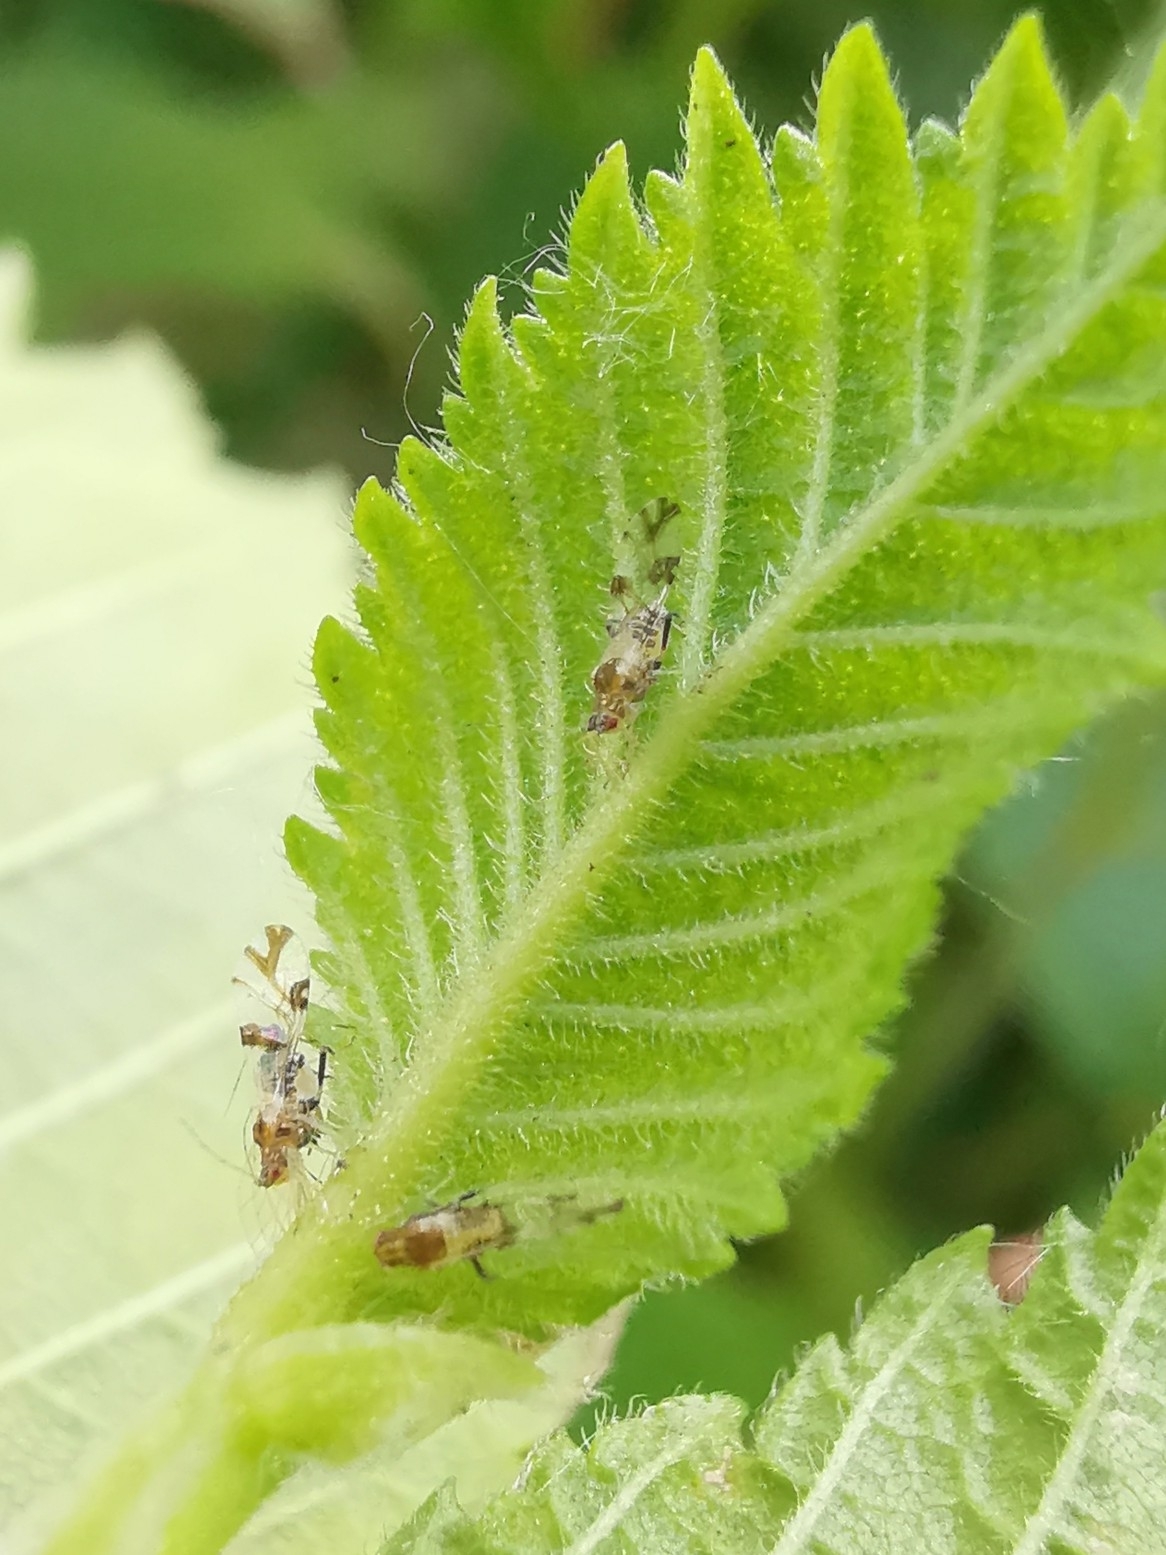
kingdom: Animalia
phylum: Arthropoda
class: Insecta
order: Hemiptera
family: Aphididae
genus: Tinocallis
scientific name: Tinocallis platani
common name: Elm aphid
